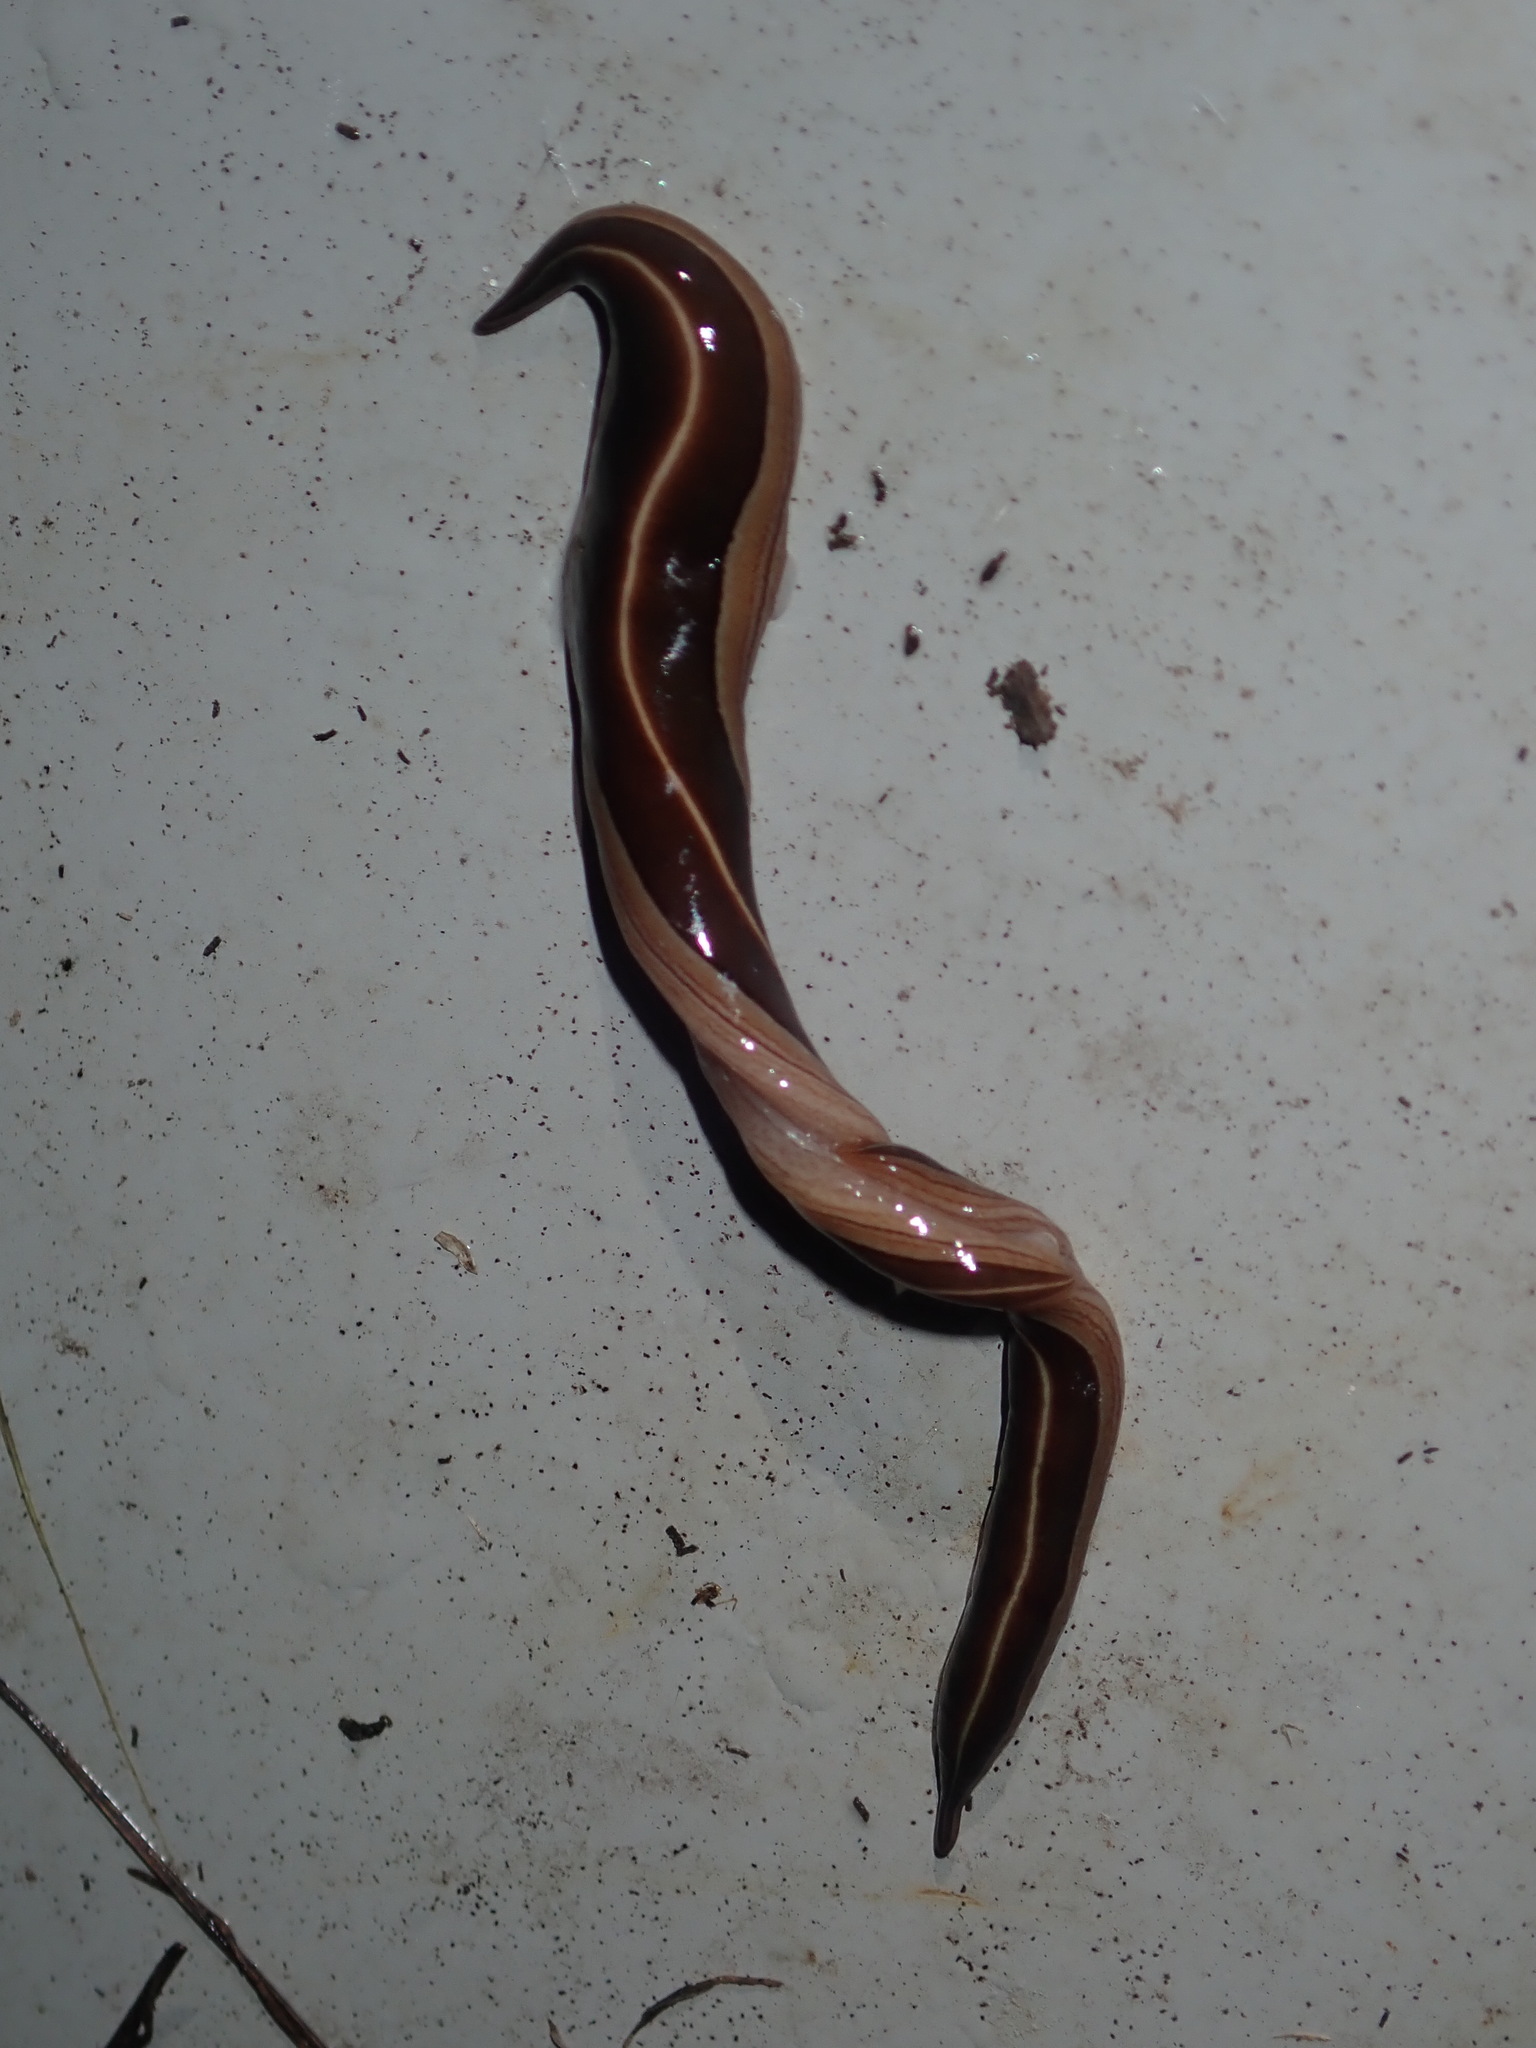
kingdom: Animalia
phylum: Platyhelminthes
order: Tricladida
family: Geoplanidae
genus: Australopacifica
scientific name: Australopacifica scaphoidea
